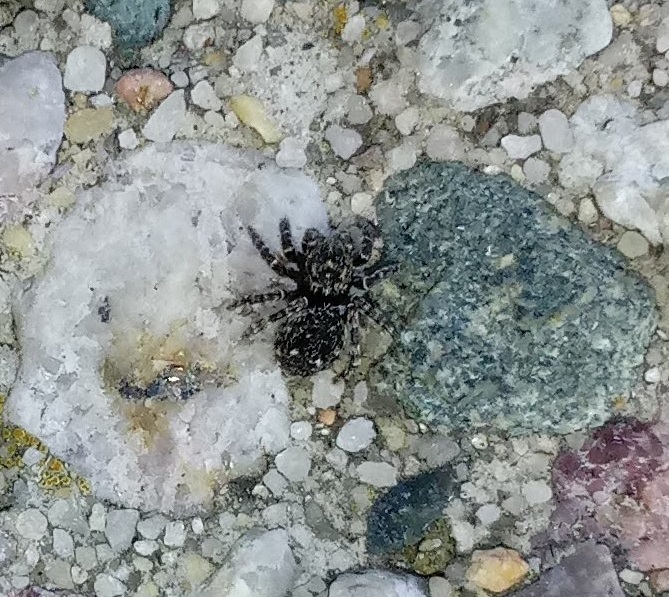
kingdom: Animalia
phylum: Arthropoda
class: Arachnida
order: Araneae
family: Salticidae
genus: Attulus
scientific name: Attulus pubescens
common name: Jumping spider
